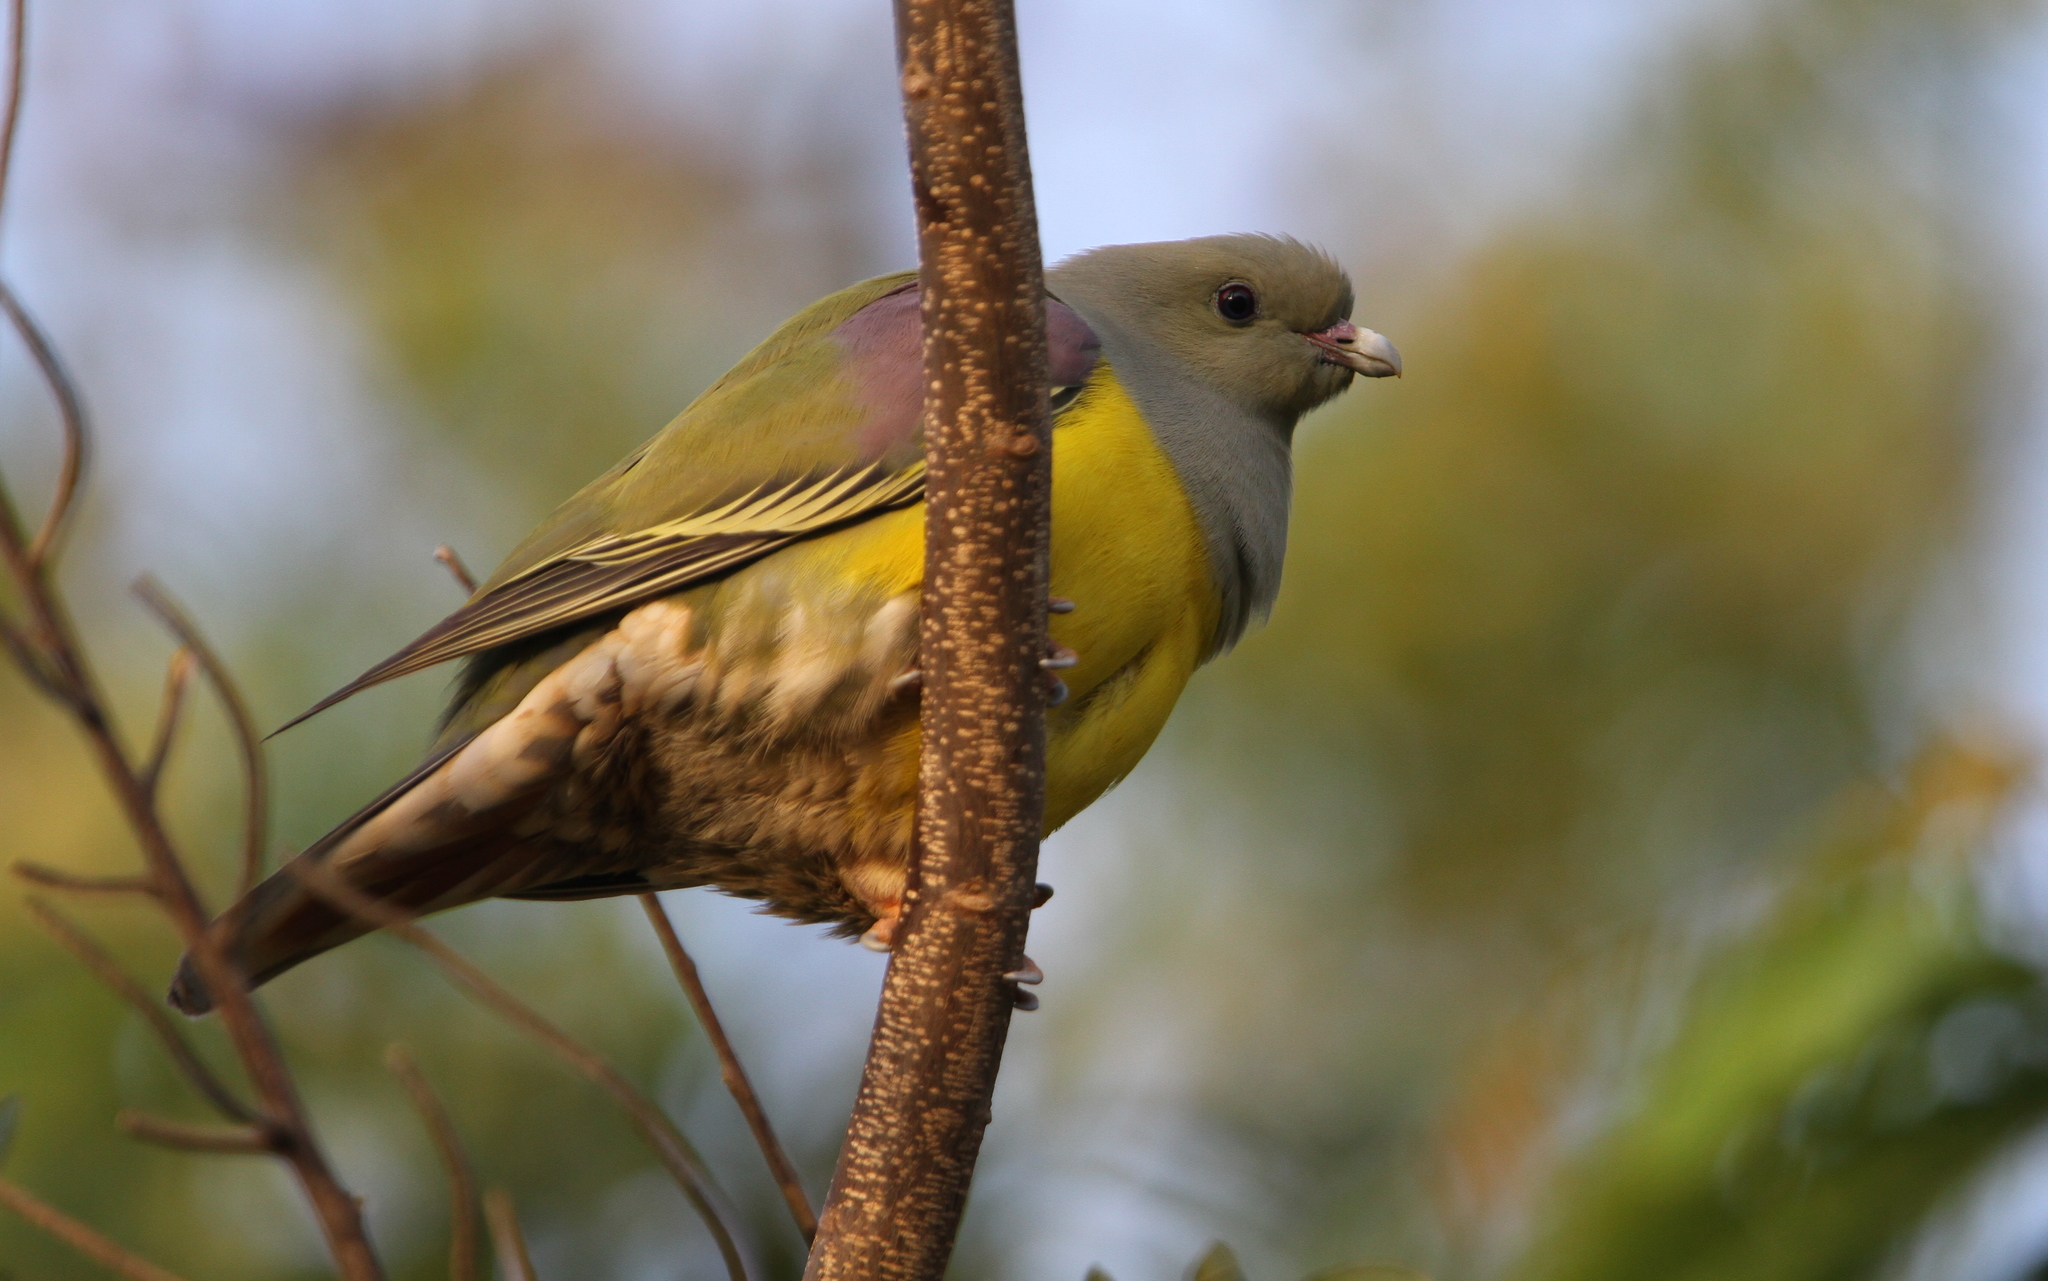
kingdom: Animalia
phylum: Chordata
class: Aves
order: Columbiformes
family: Columbidae
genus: Treron
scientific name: Treron waalia
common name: Bruce's green pigeon
